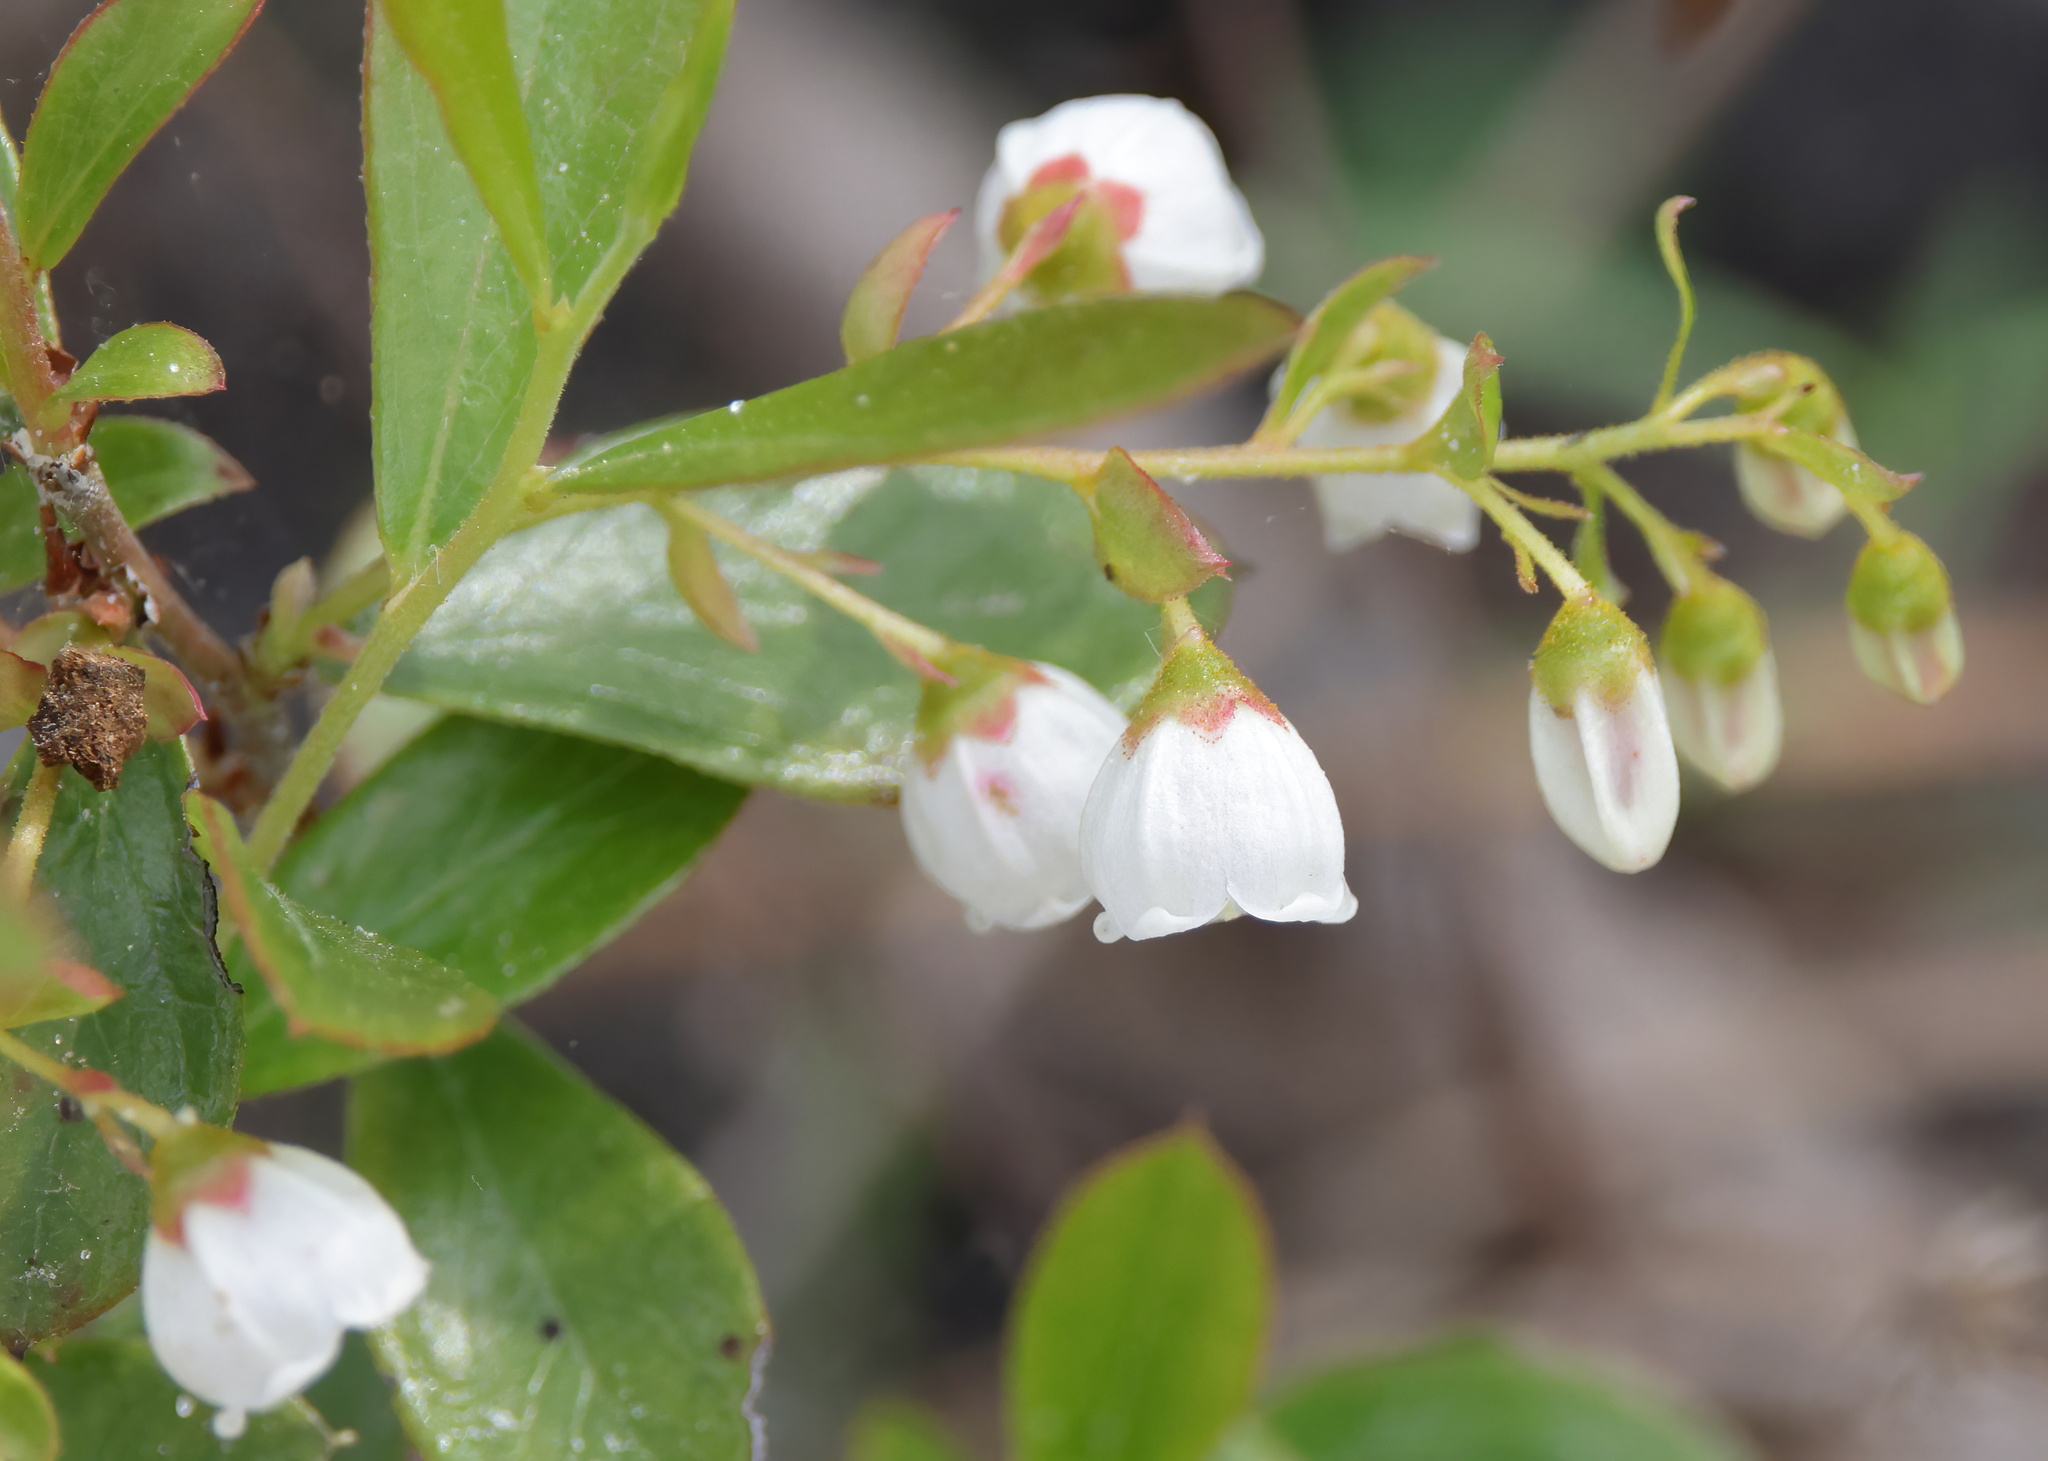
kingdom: Plantae
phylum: Tracheophyta
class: Magnoliopsida
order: Ericales
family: Ericaceae
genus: Gaylussacia
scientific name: Gaylussacia dumosa
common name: Dwarf huckleberry
